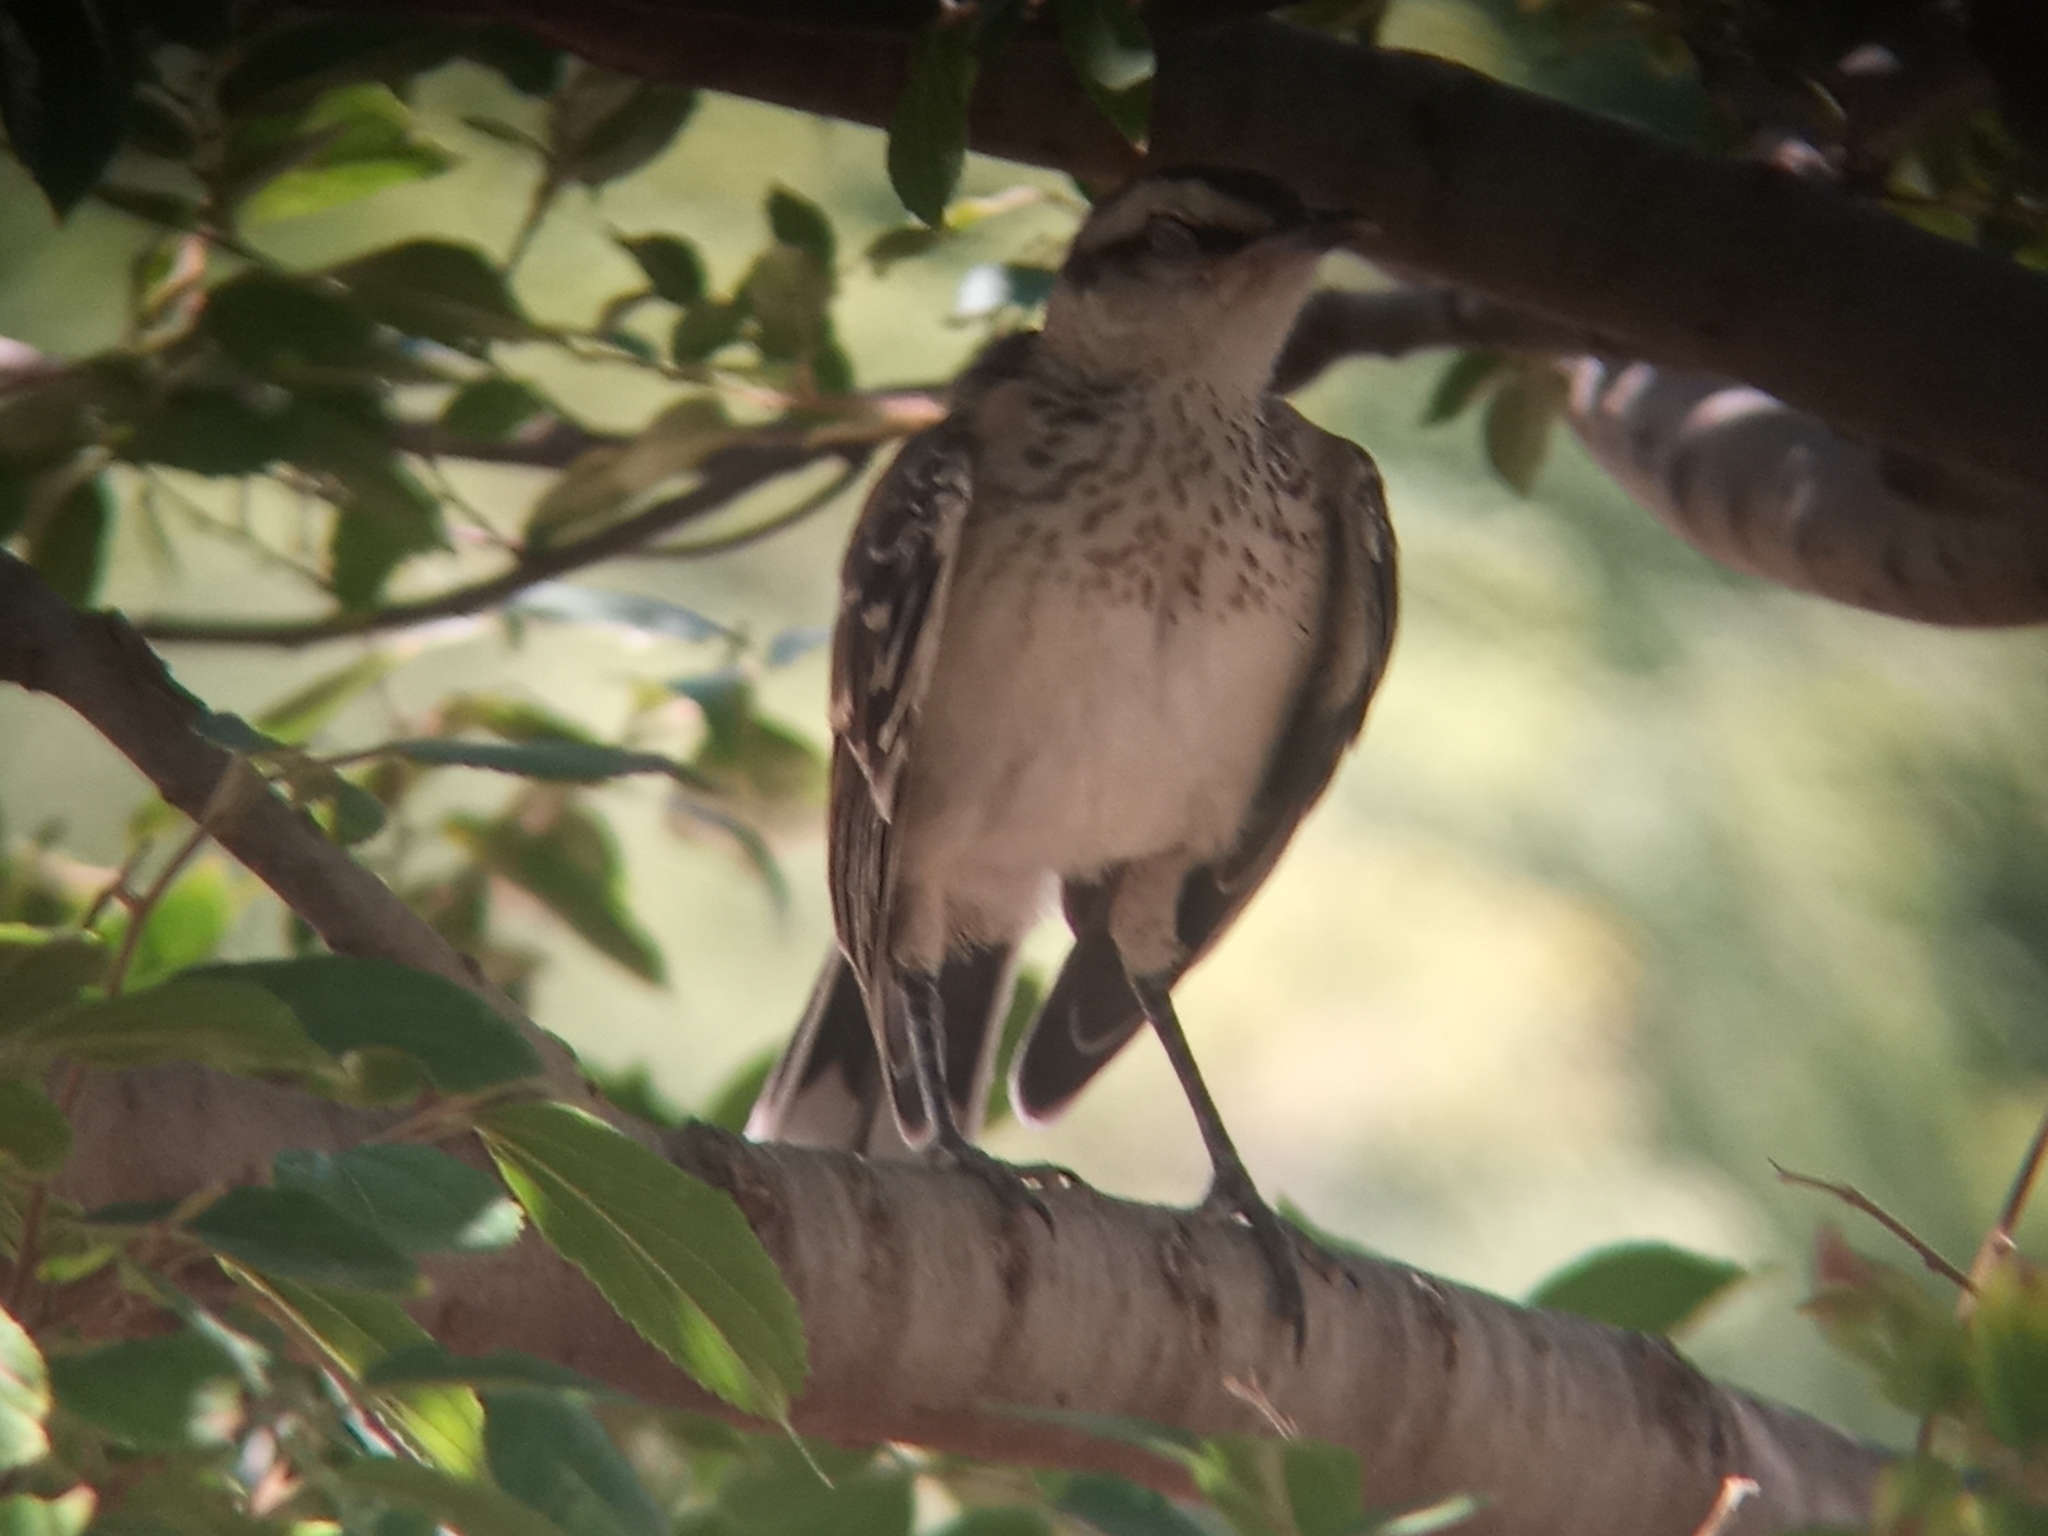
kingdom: Animalia
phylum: Chordata
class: Aves
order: Passeriformes
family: Mimidae
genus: Mimus
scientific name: Mimus saturninus
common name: Chalk-browed mockingbird
